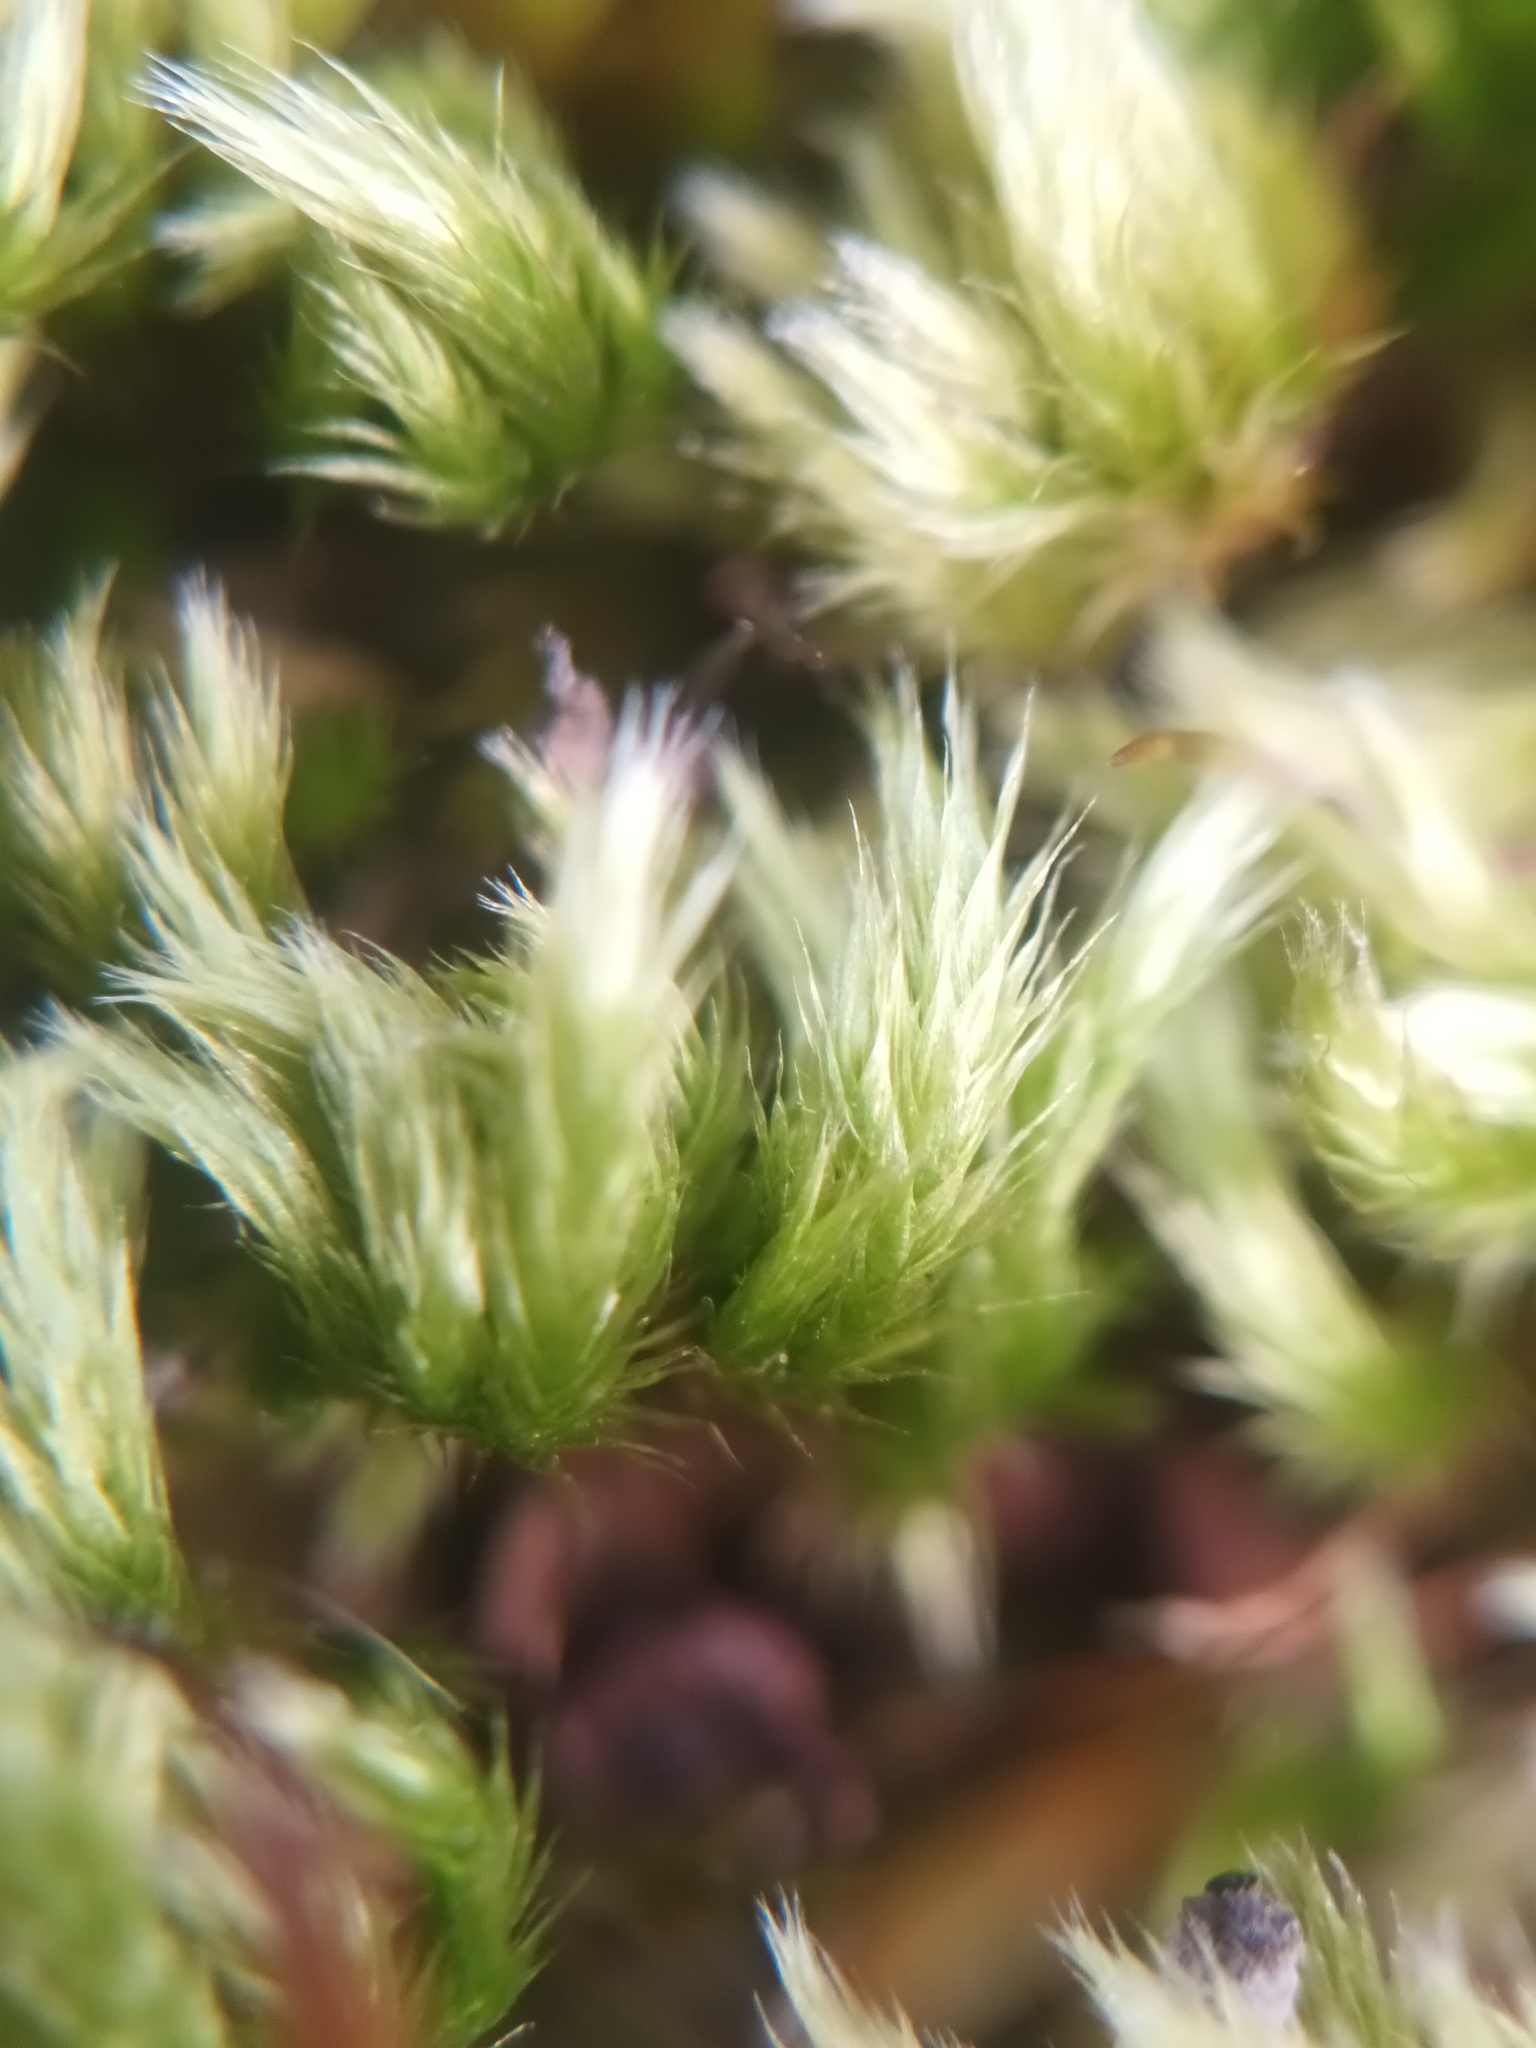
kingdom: Plantae
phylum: Bryophyta
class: Bryopsida
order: Hypnales
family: Brachytheciaceae
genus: Homalothecium
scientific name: Homalothecium sericeum
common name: Silky wall feather-moss
